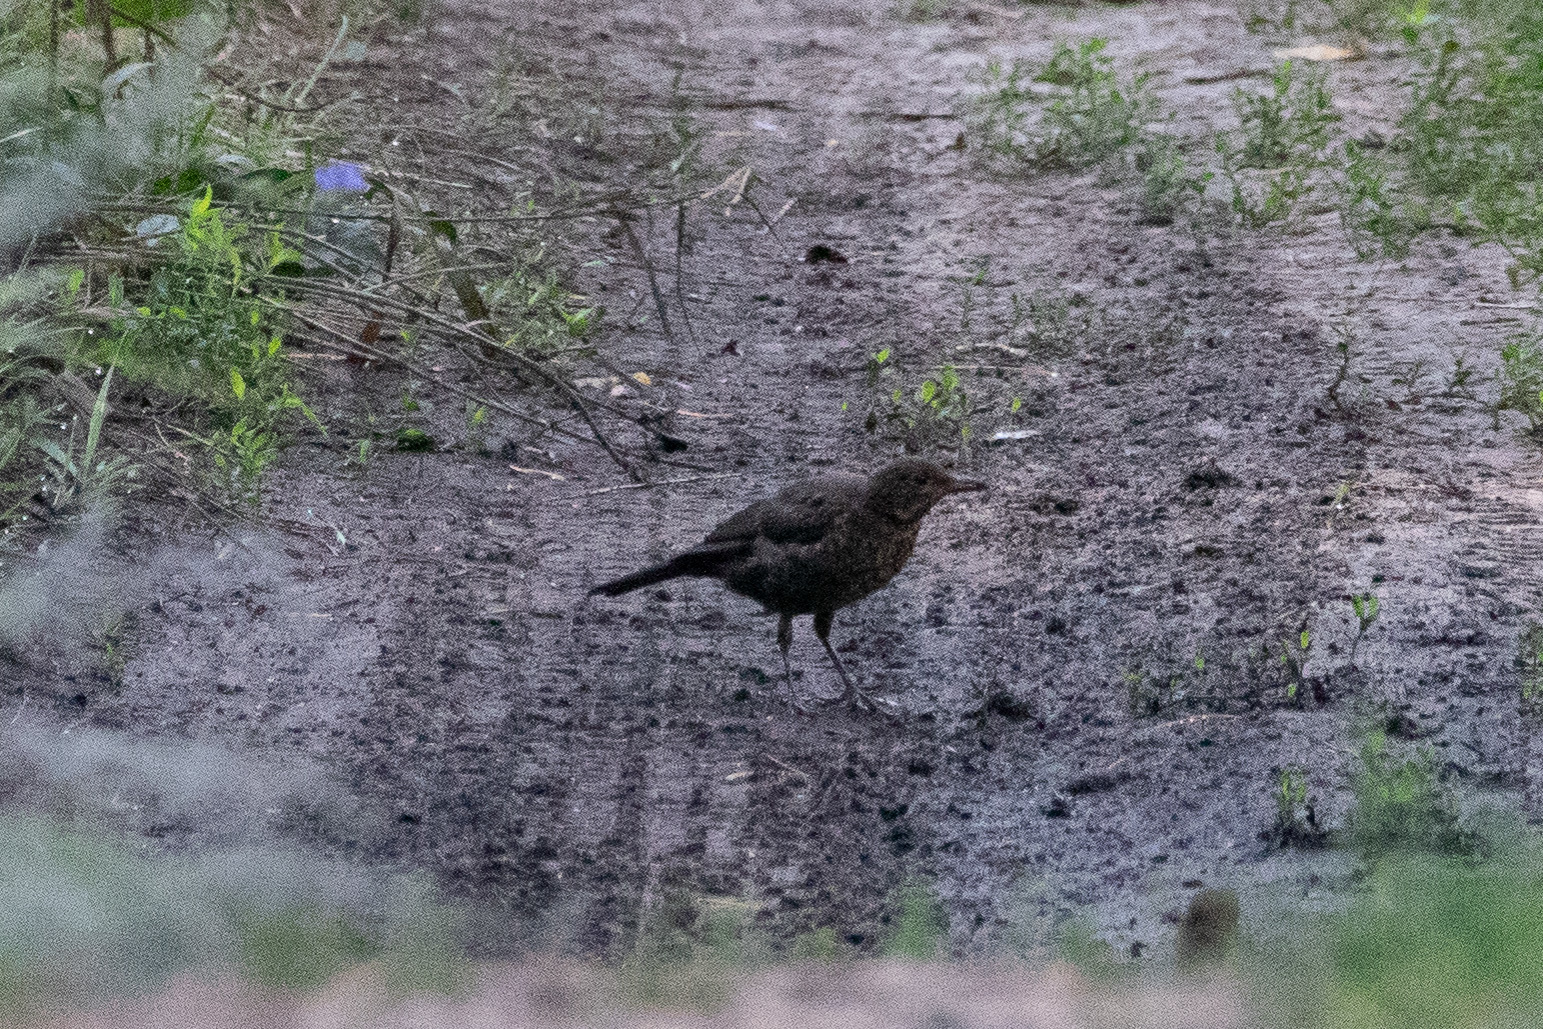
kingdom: Animalia
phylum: Chordata
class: Aves
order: Passeriformes
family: Turdidae
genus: Turdus
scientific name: Turdus merula
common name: Common blackbird
